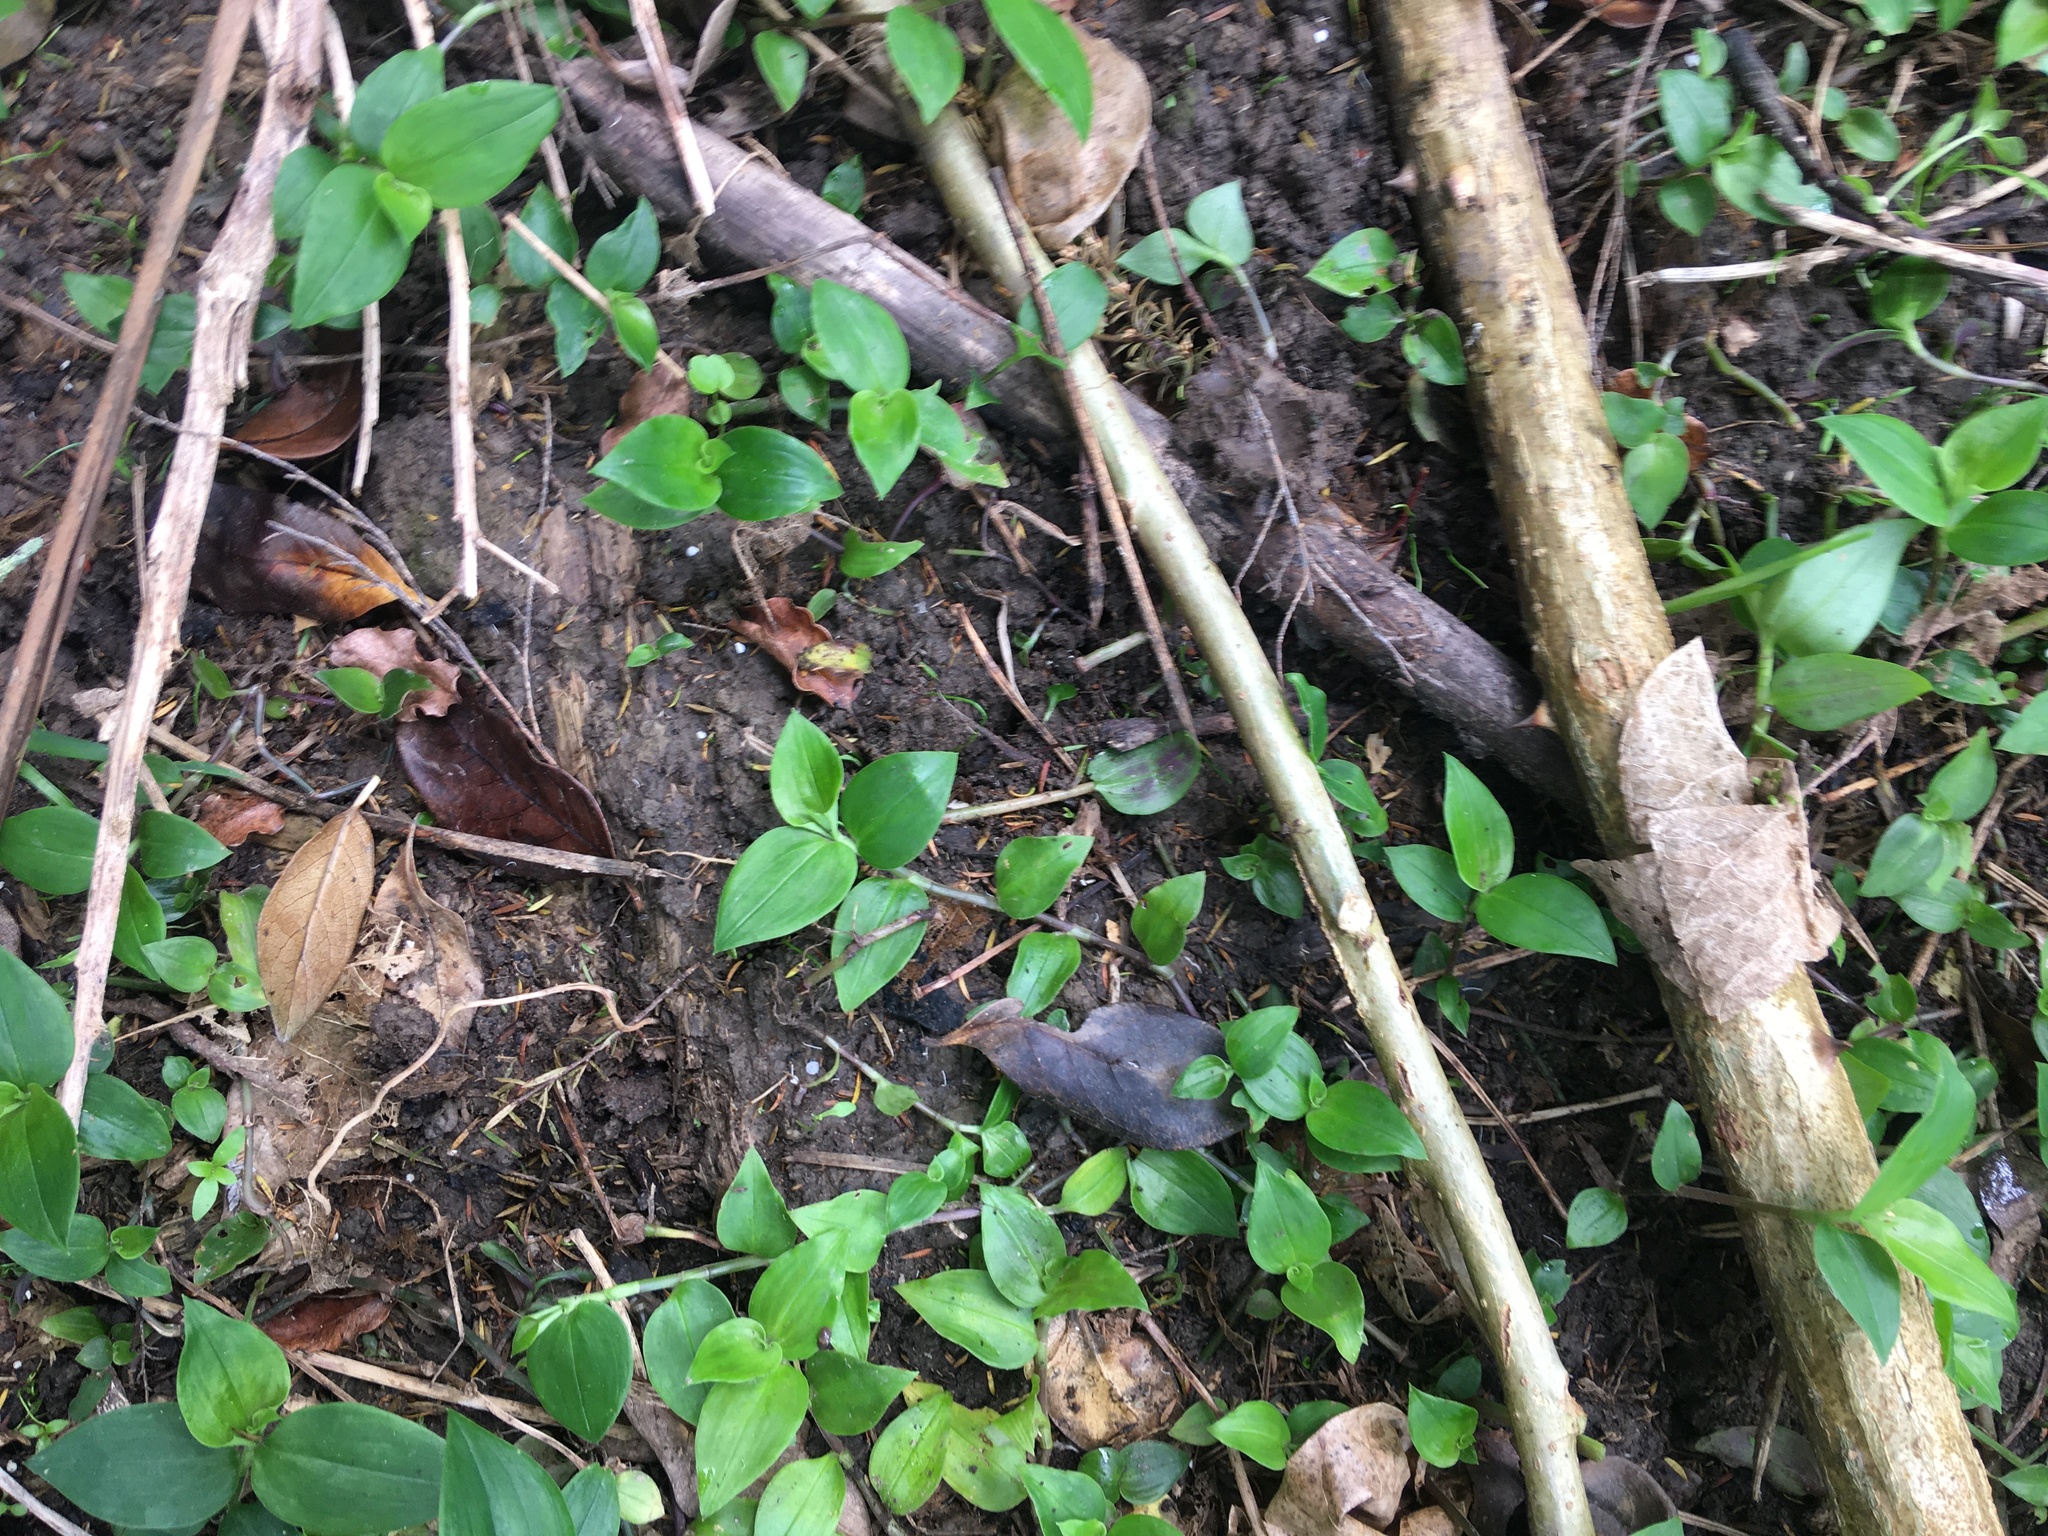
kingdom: Plantae
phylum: Tracheophyta
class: Magnoliopsida
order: Gentianales
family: Rubiaceae
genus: Coprosma
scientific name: Coprosma robusta
